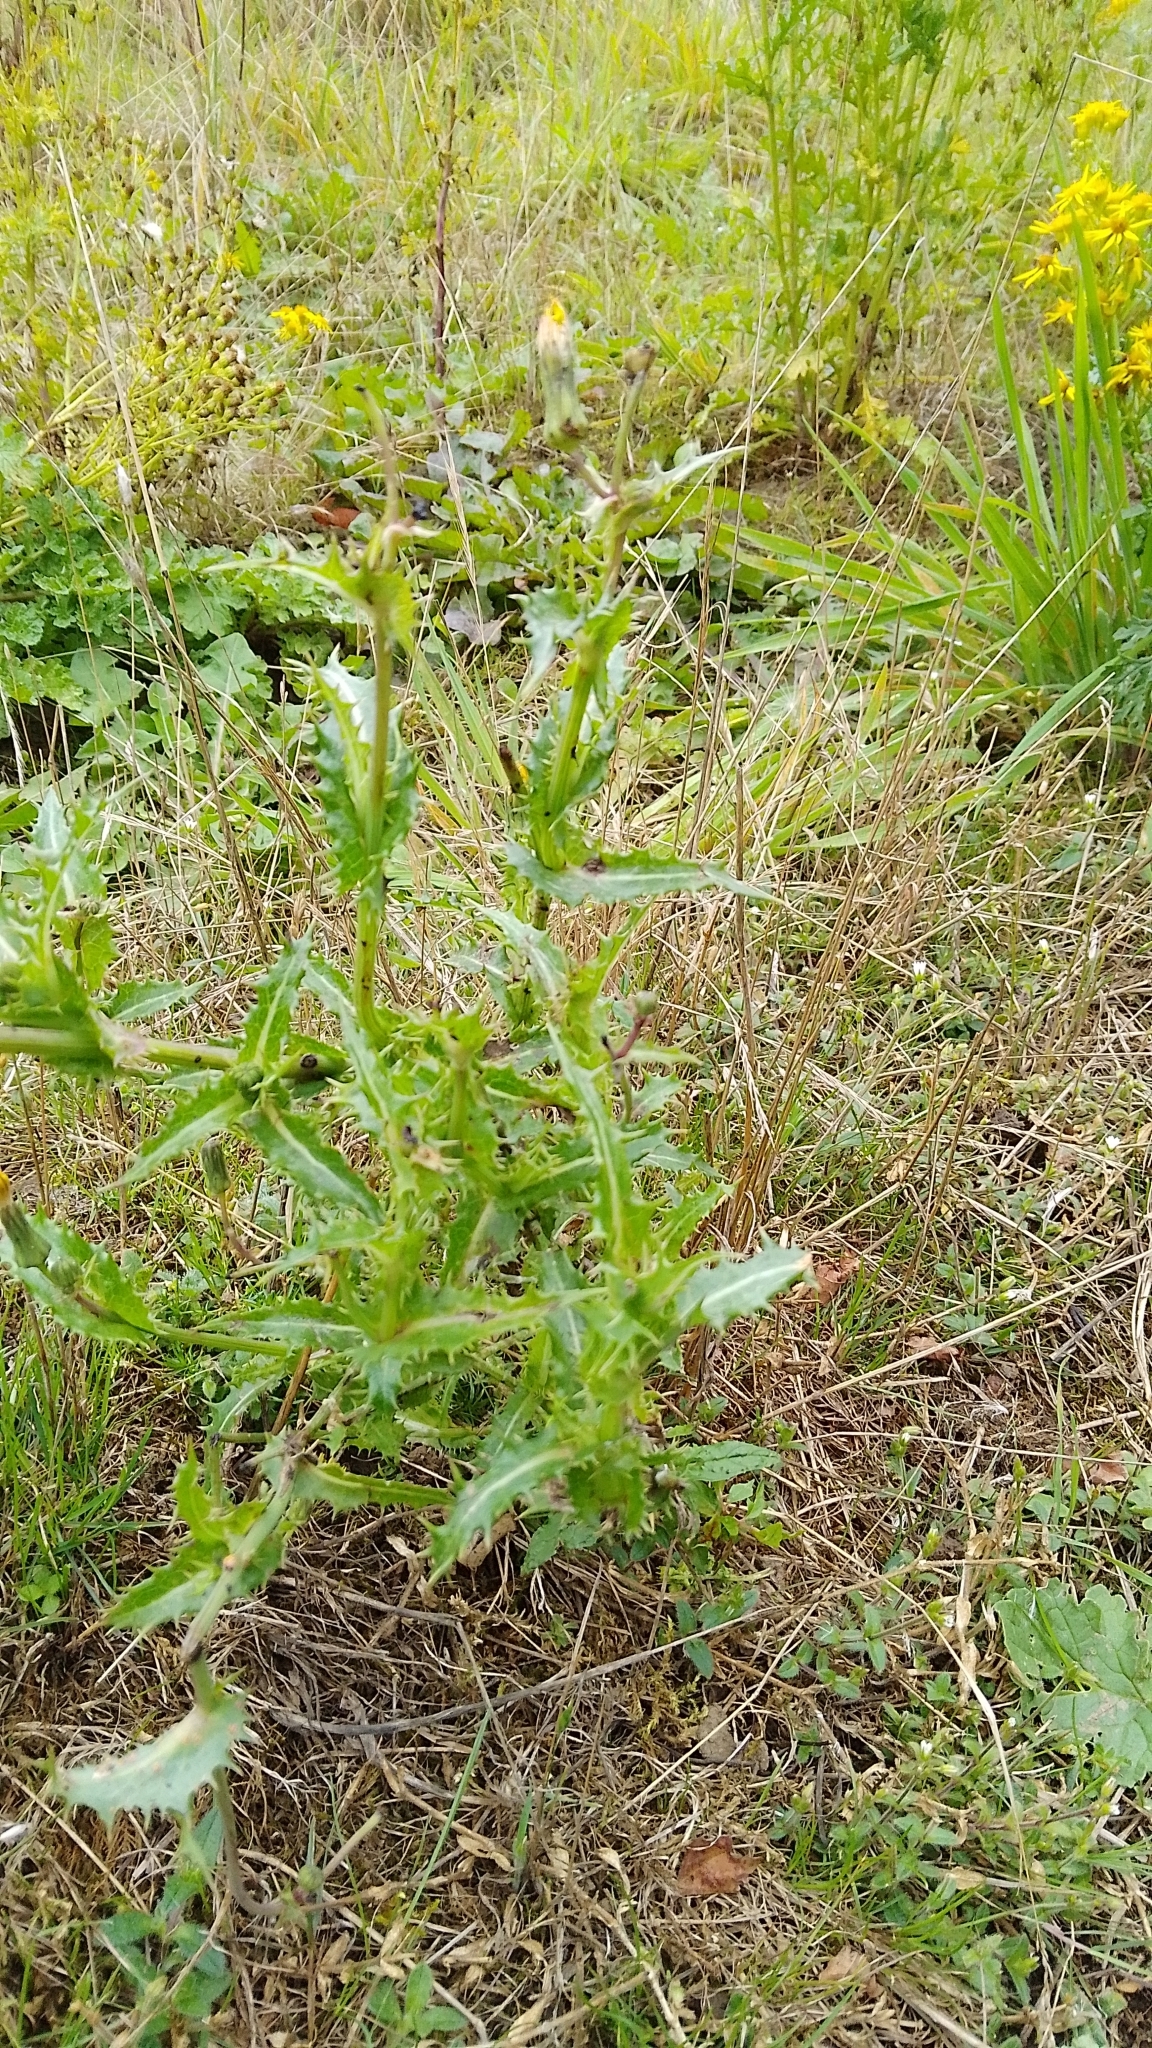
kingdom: Plantae
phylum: Tracheophyta
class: Magnoliopsida
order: Asterales
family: Asteraceae
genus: Sonchus
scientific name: Sonchus asper
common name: Prickly sow-thistle
